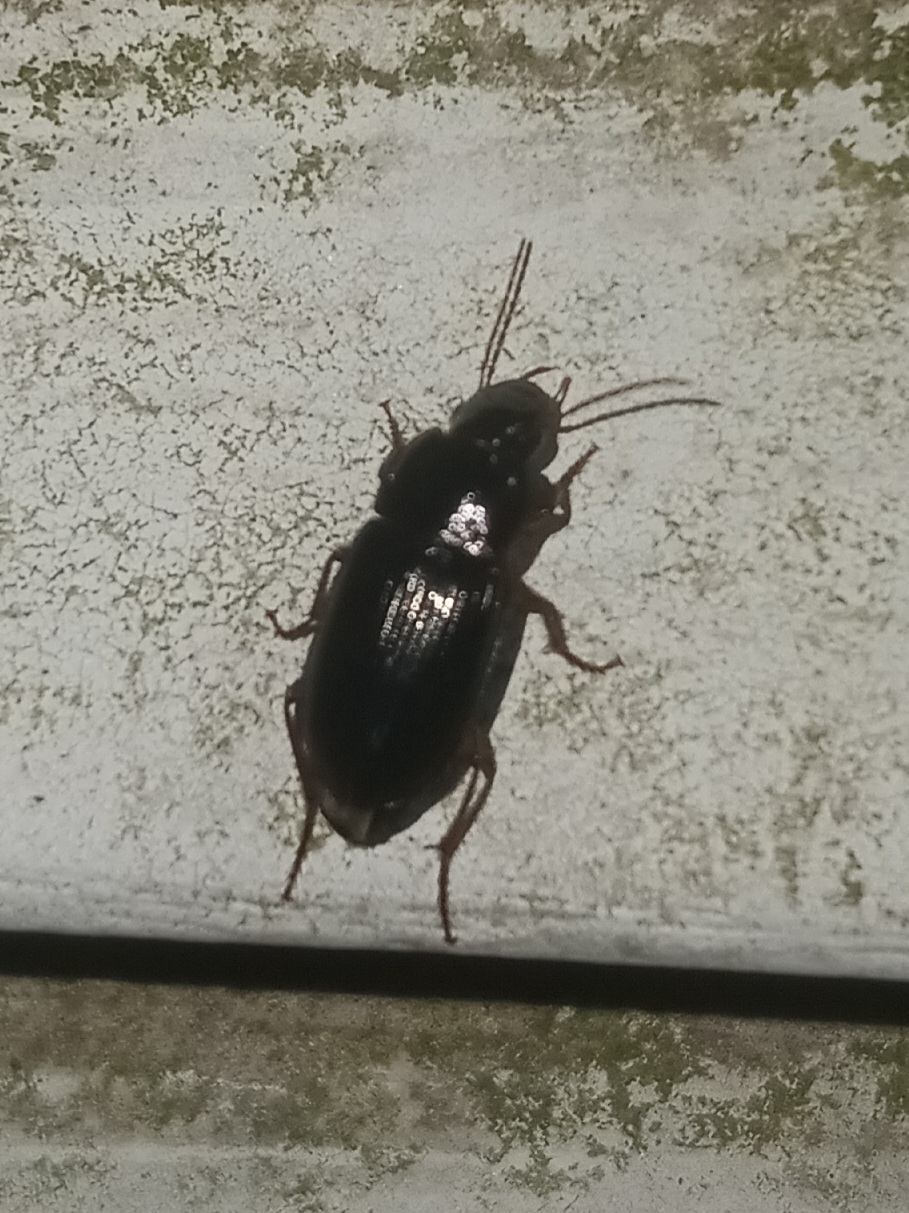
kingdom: Animalia
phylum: Arthropoda
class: Insecta
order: Coleoptera
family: Carabidae
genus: Notiobia
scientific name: Notiobia terminata
